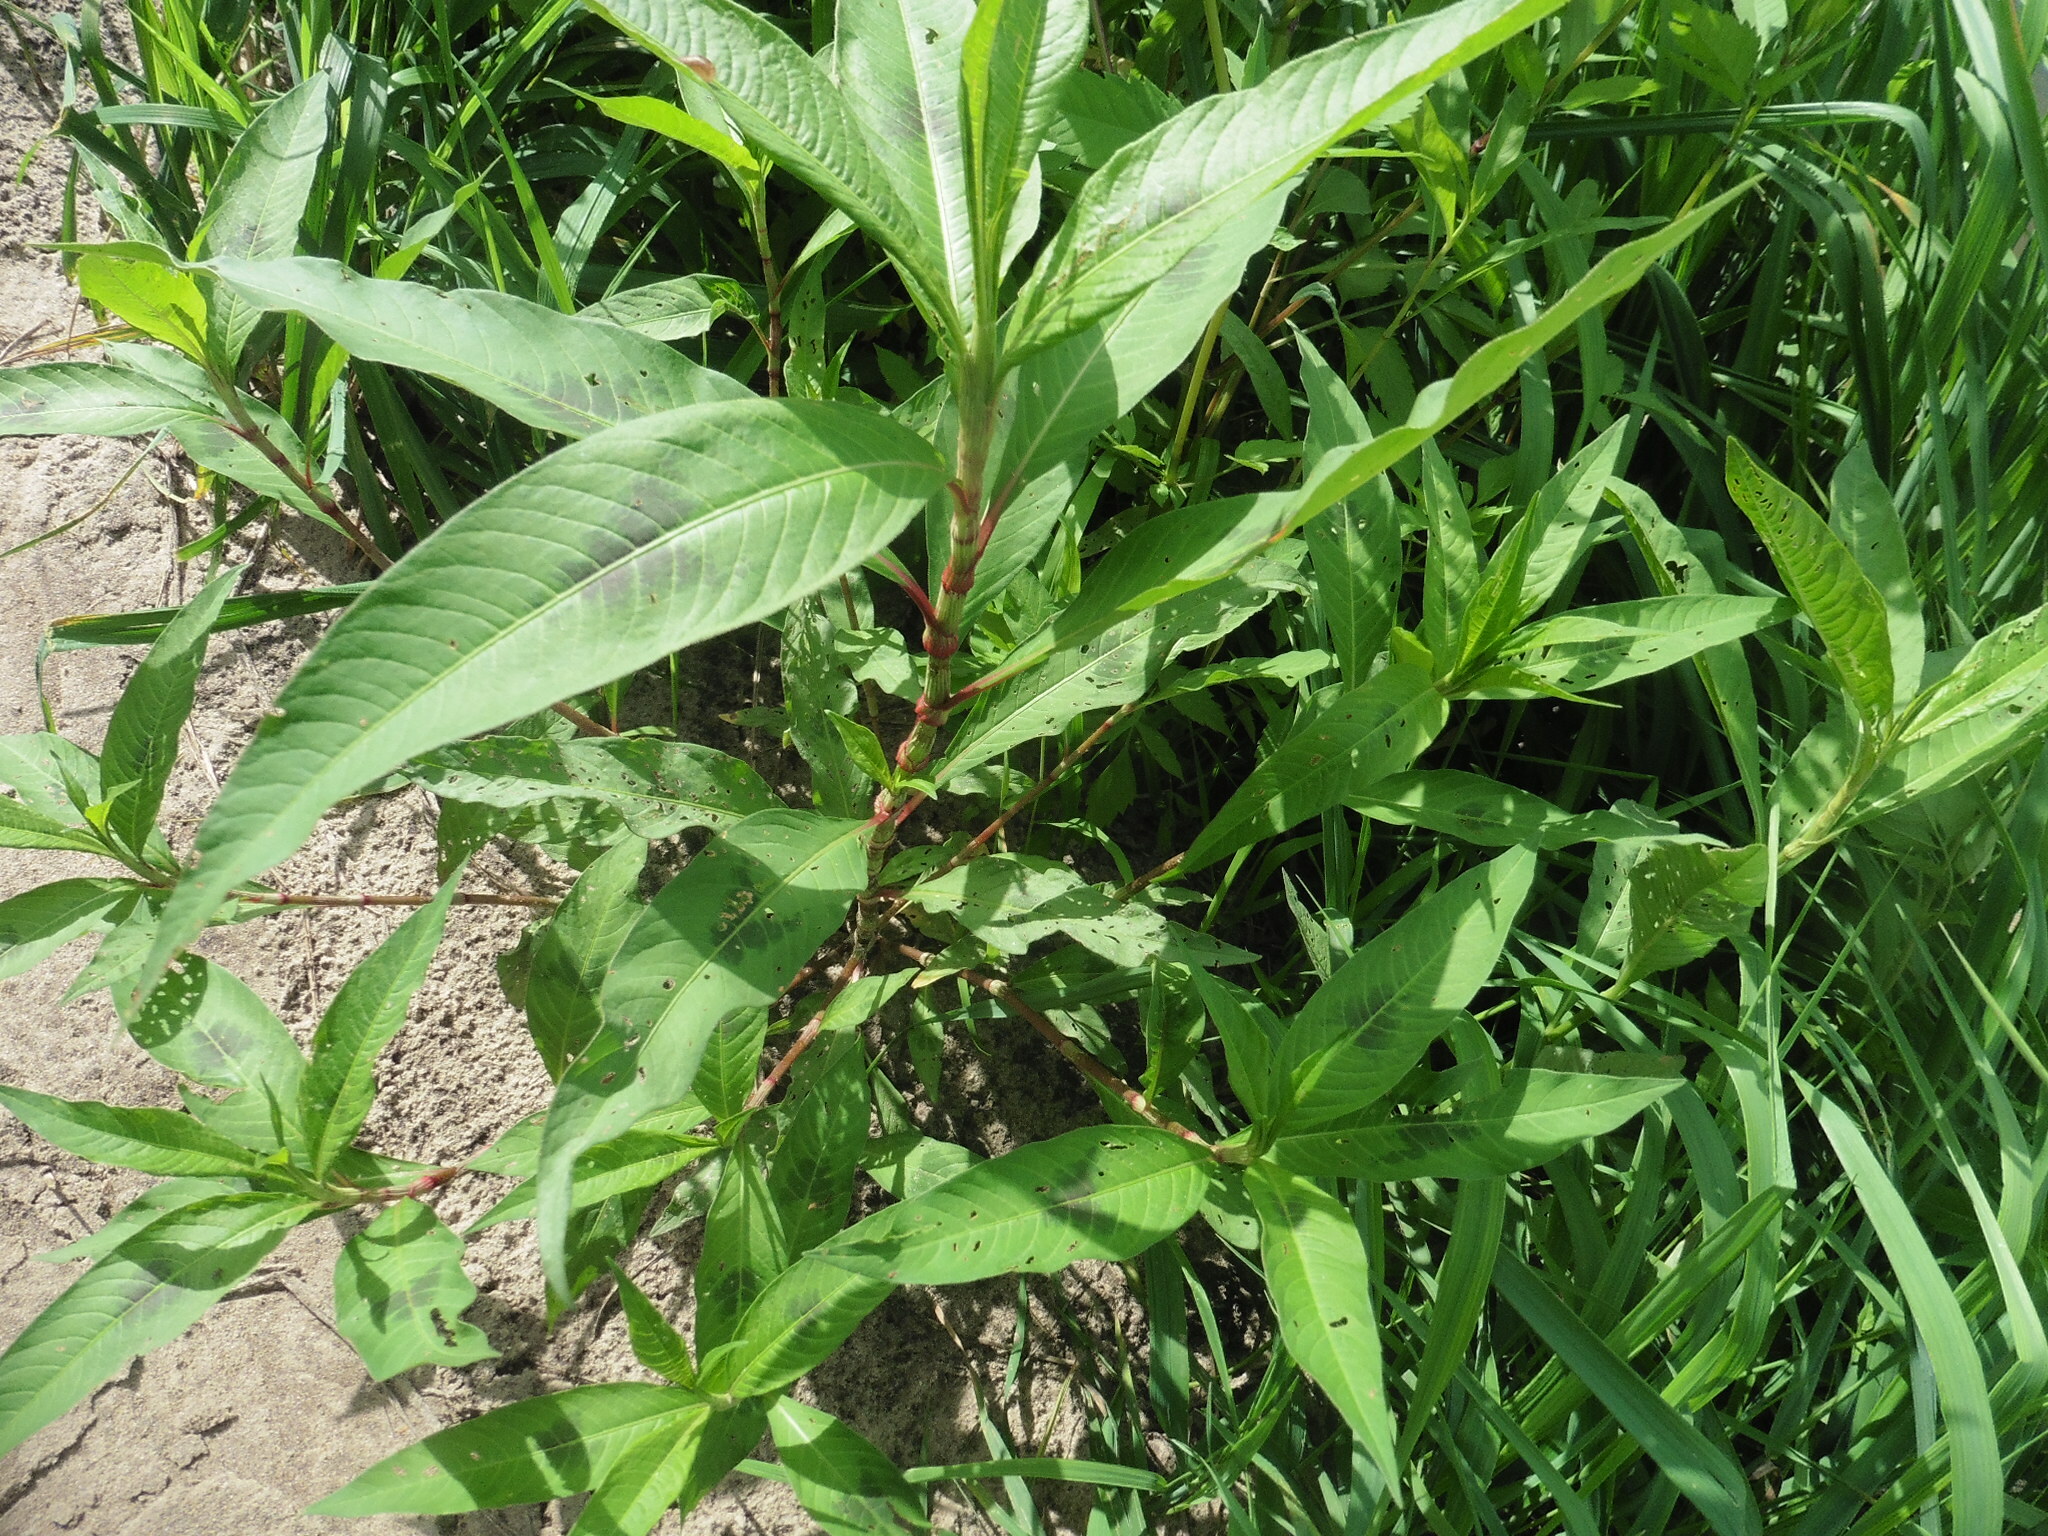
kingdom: Plantae
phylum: Tracheophyta
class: Magnoliopsida
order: Caryophyllales
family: Polygonaceae
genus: Persicaria
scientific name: Persicaria lapathifolia
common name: Curlytop knotweed
